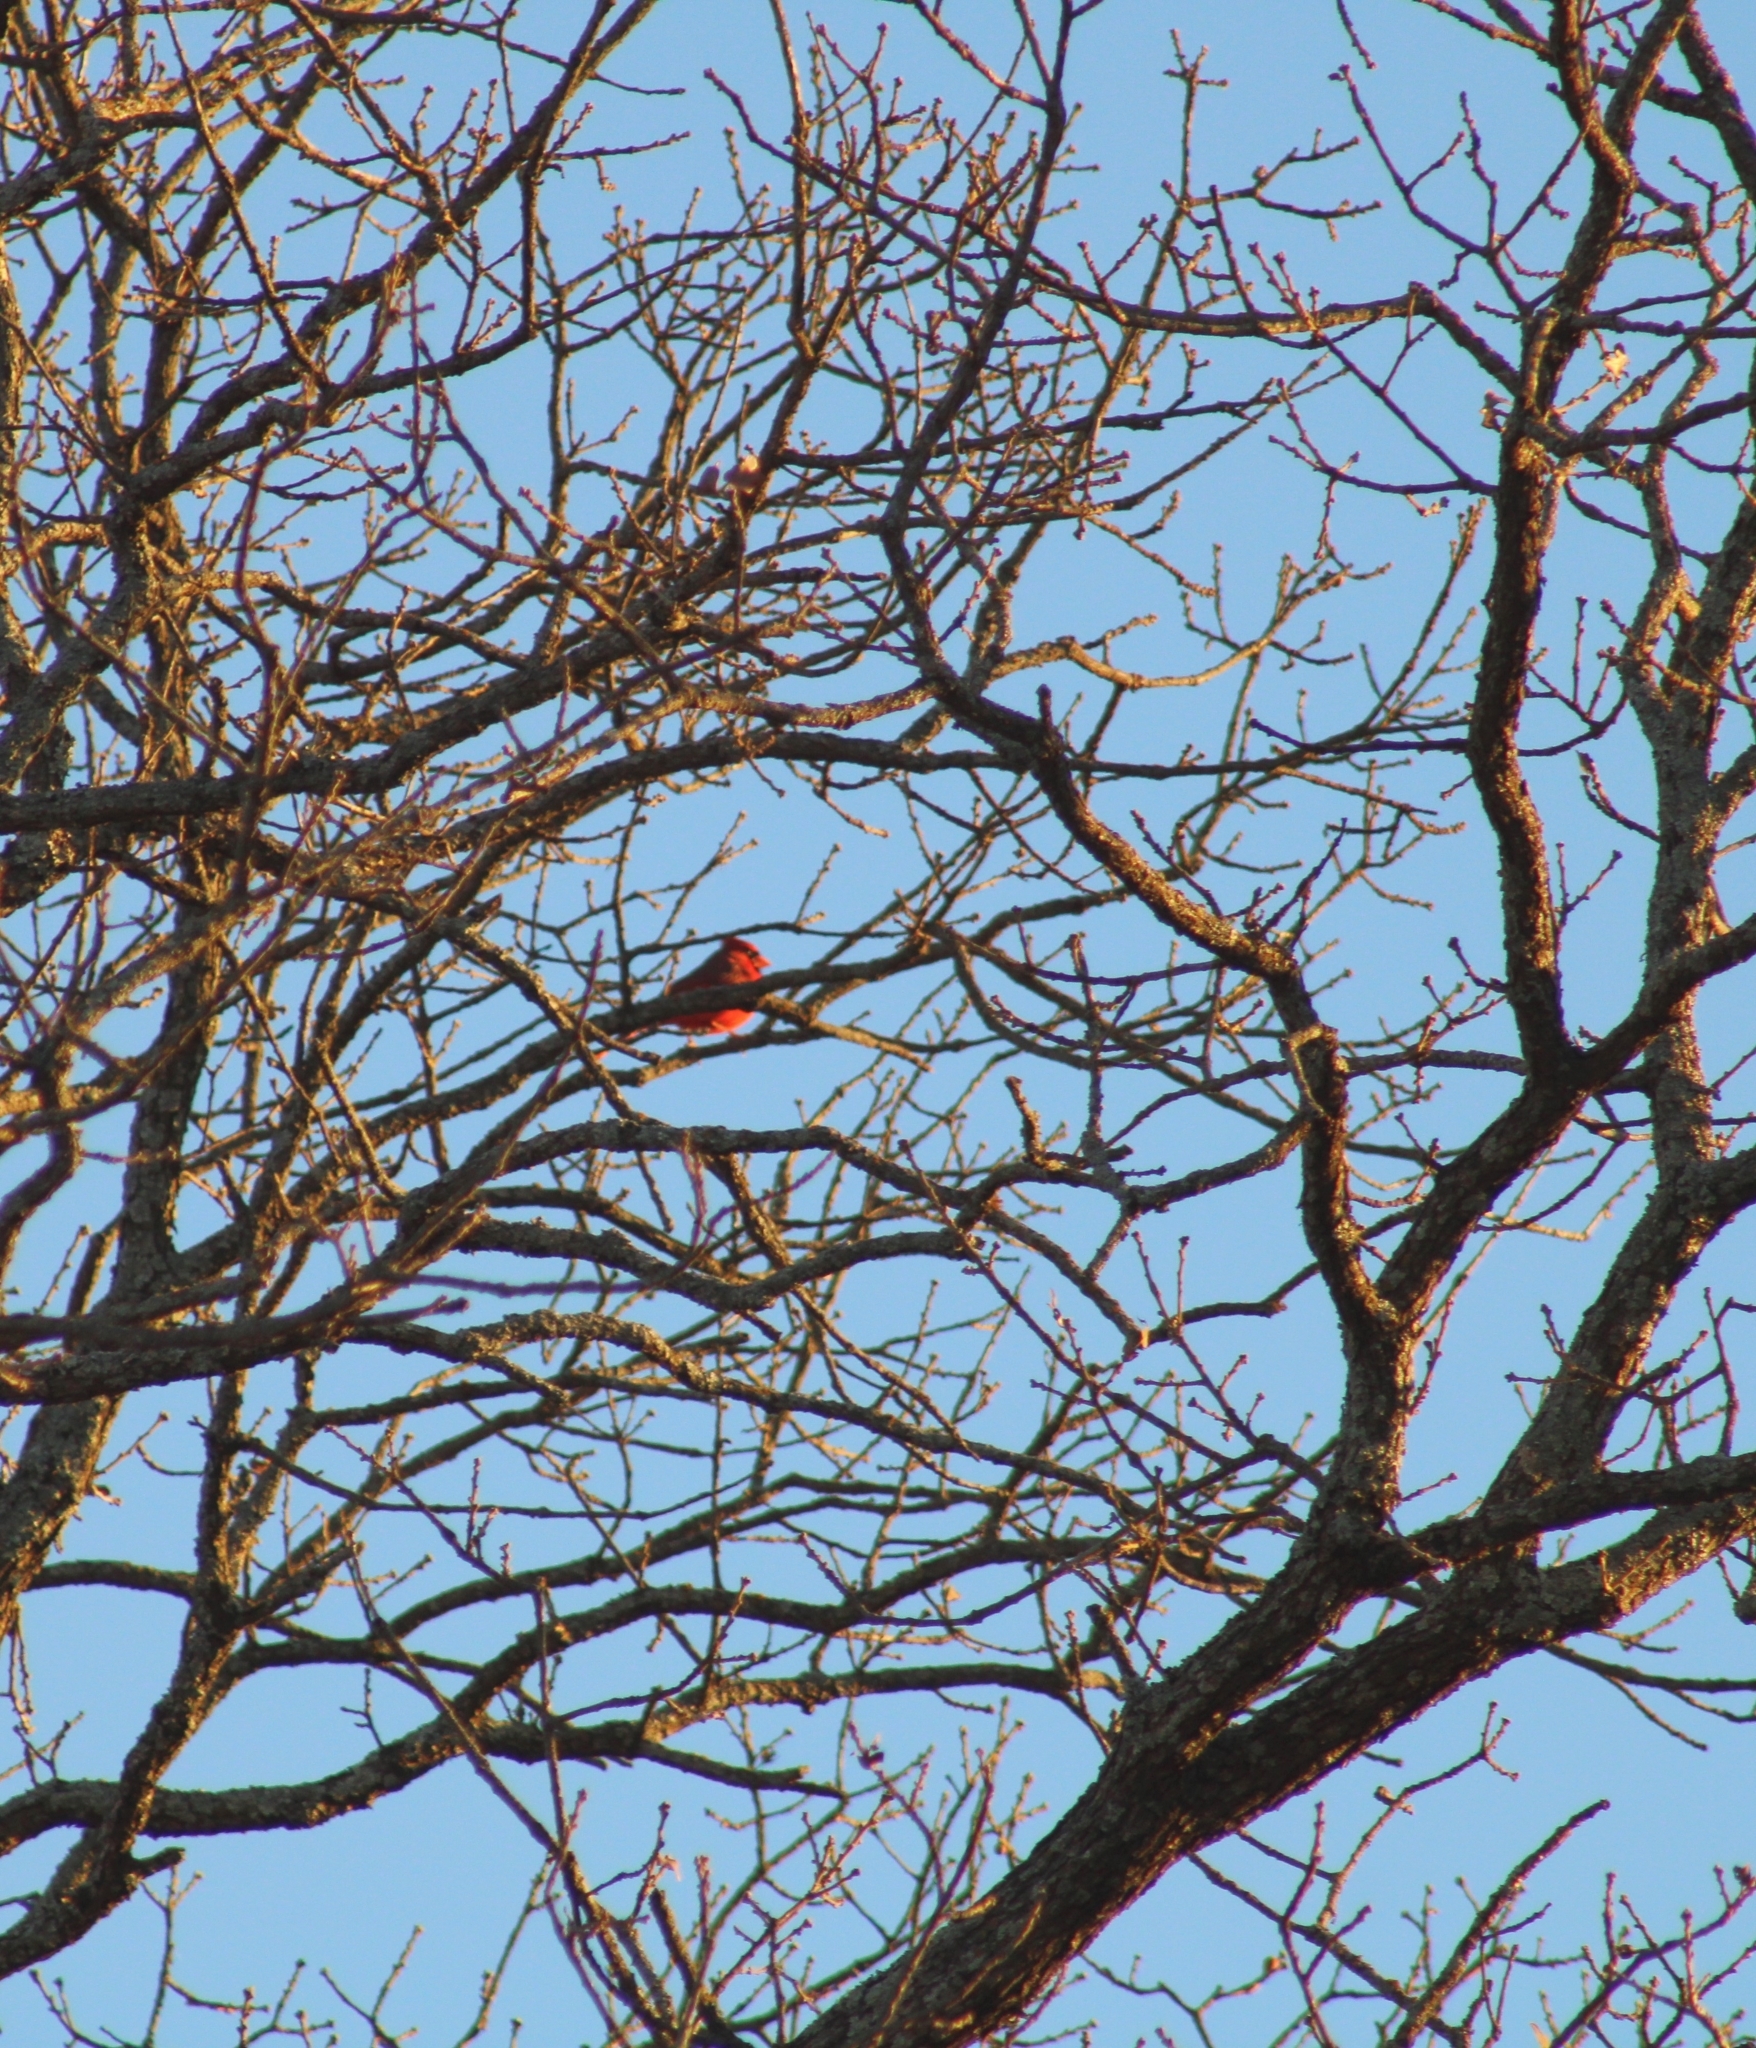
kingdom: Animalia
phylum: Chordata
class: Aves
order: Passeriformes
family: Cardinalidae
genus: Cardinalis
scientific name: Cardinalis cardinalis
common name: Northern cardinal
